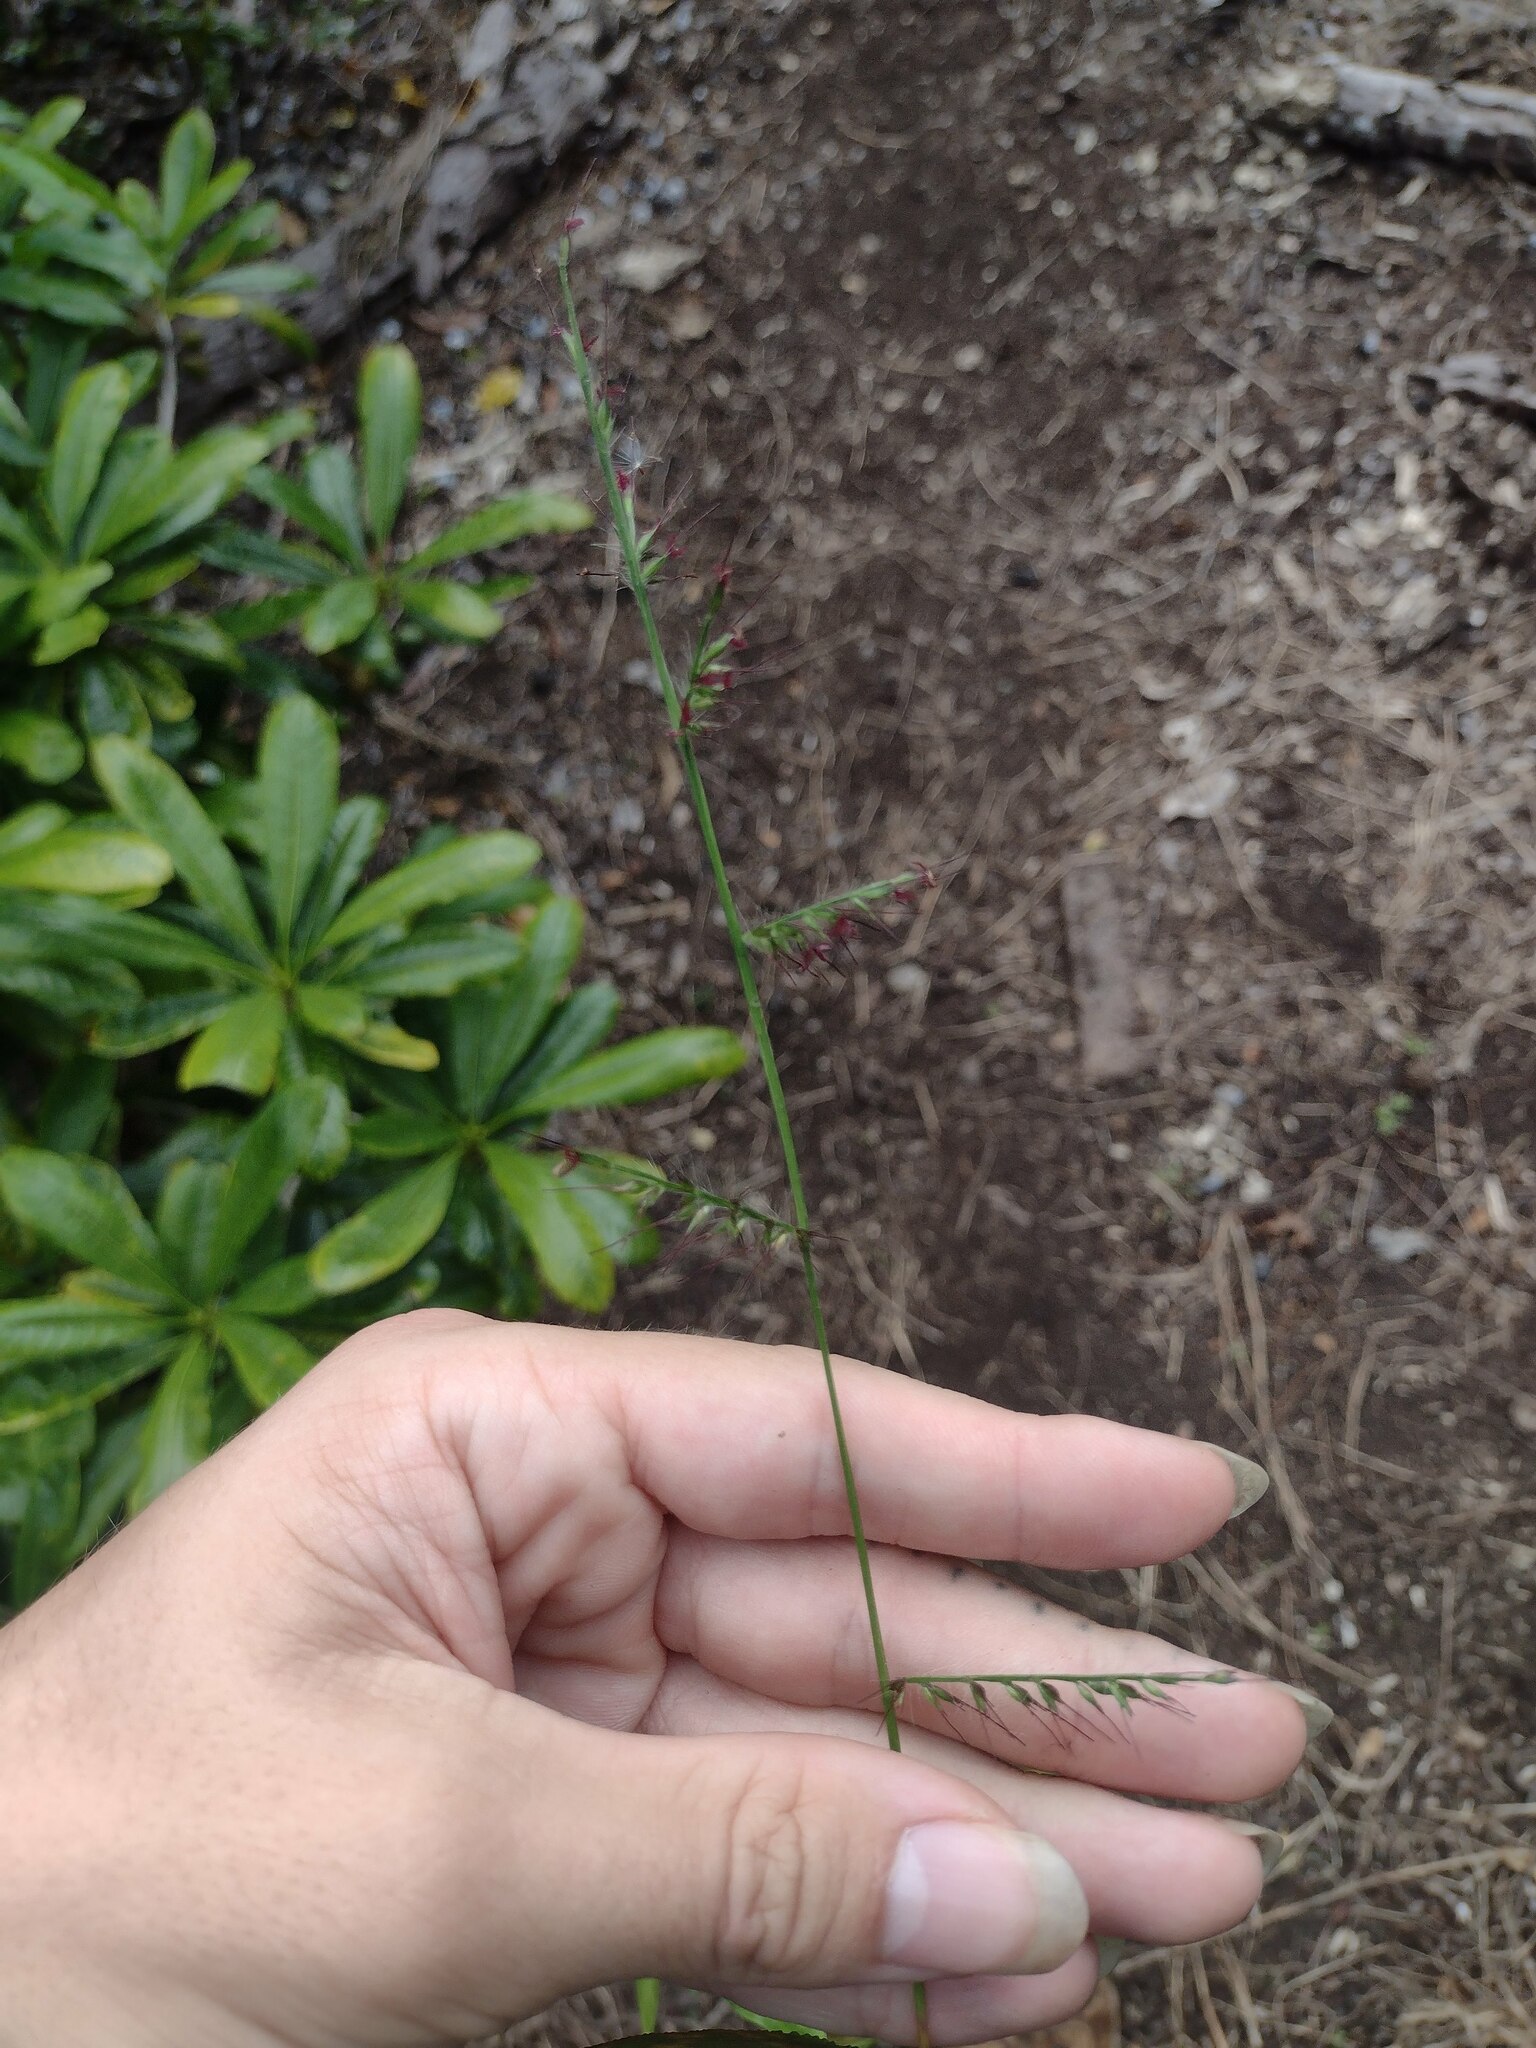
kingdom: Plantae
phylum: Tracheophyta
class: Liliopsida
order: Poales
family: Poaceae
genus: Oplismenus
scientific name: Oplismenus hirtellus
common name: Basketgrass
